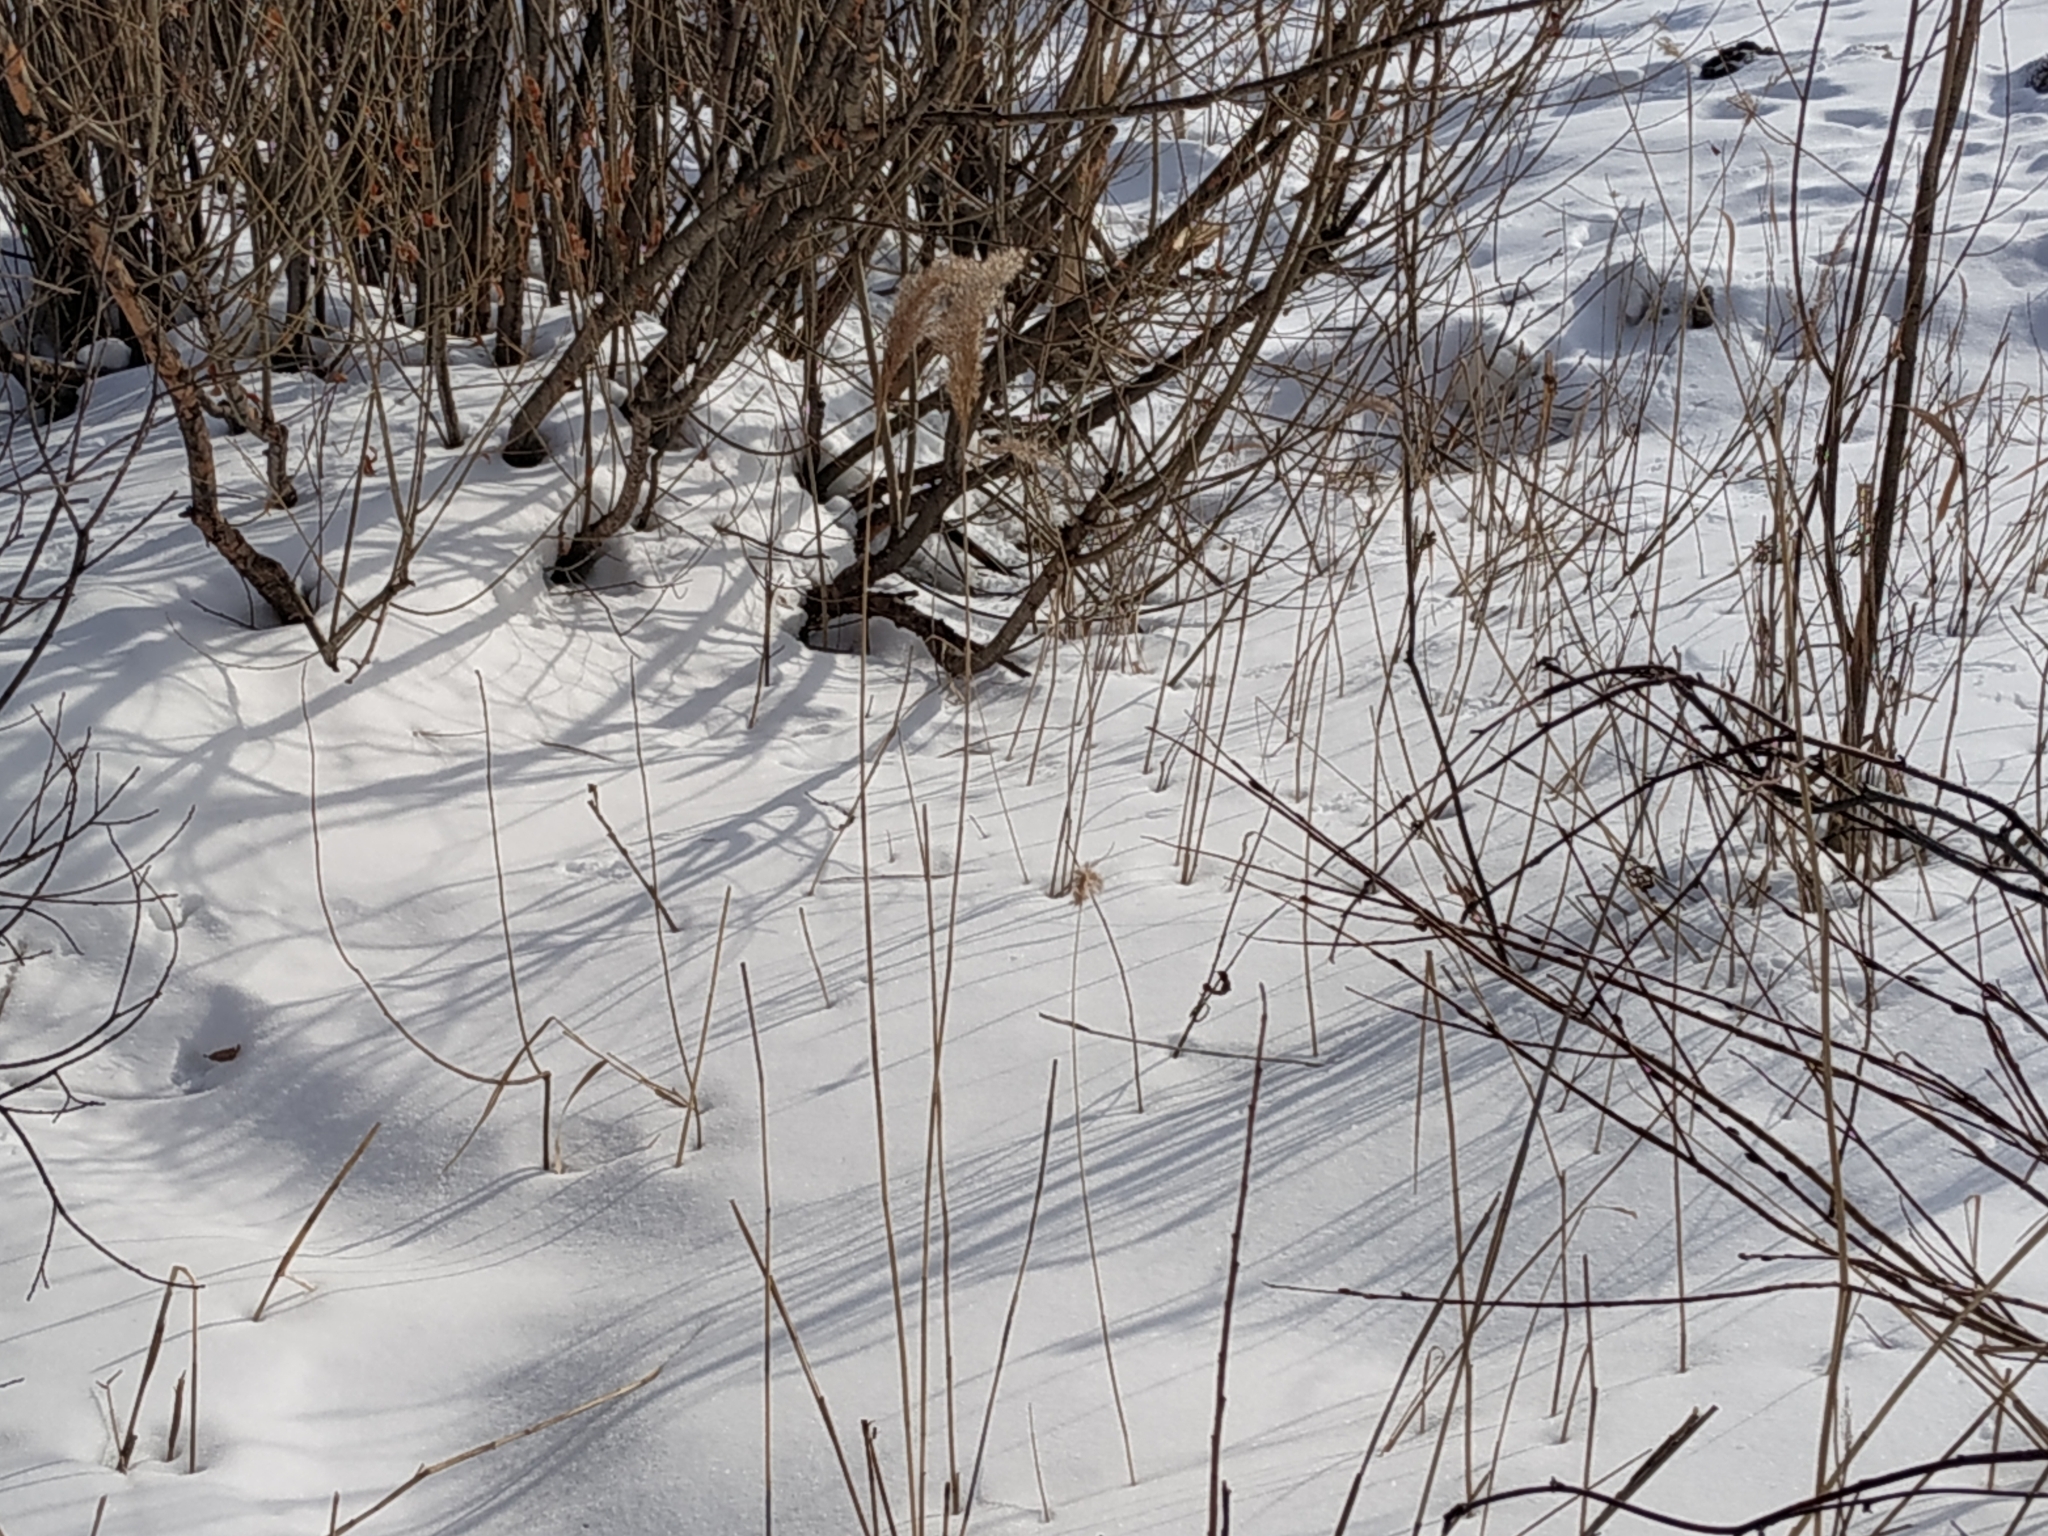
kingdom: Plantae
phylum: Tracheophyta
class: Liliopsida
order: Poales
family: Poaceae
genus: Phragmites
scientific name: Phragmites australis
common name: Common reed
